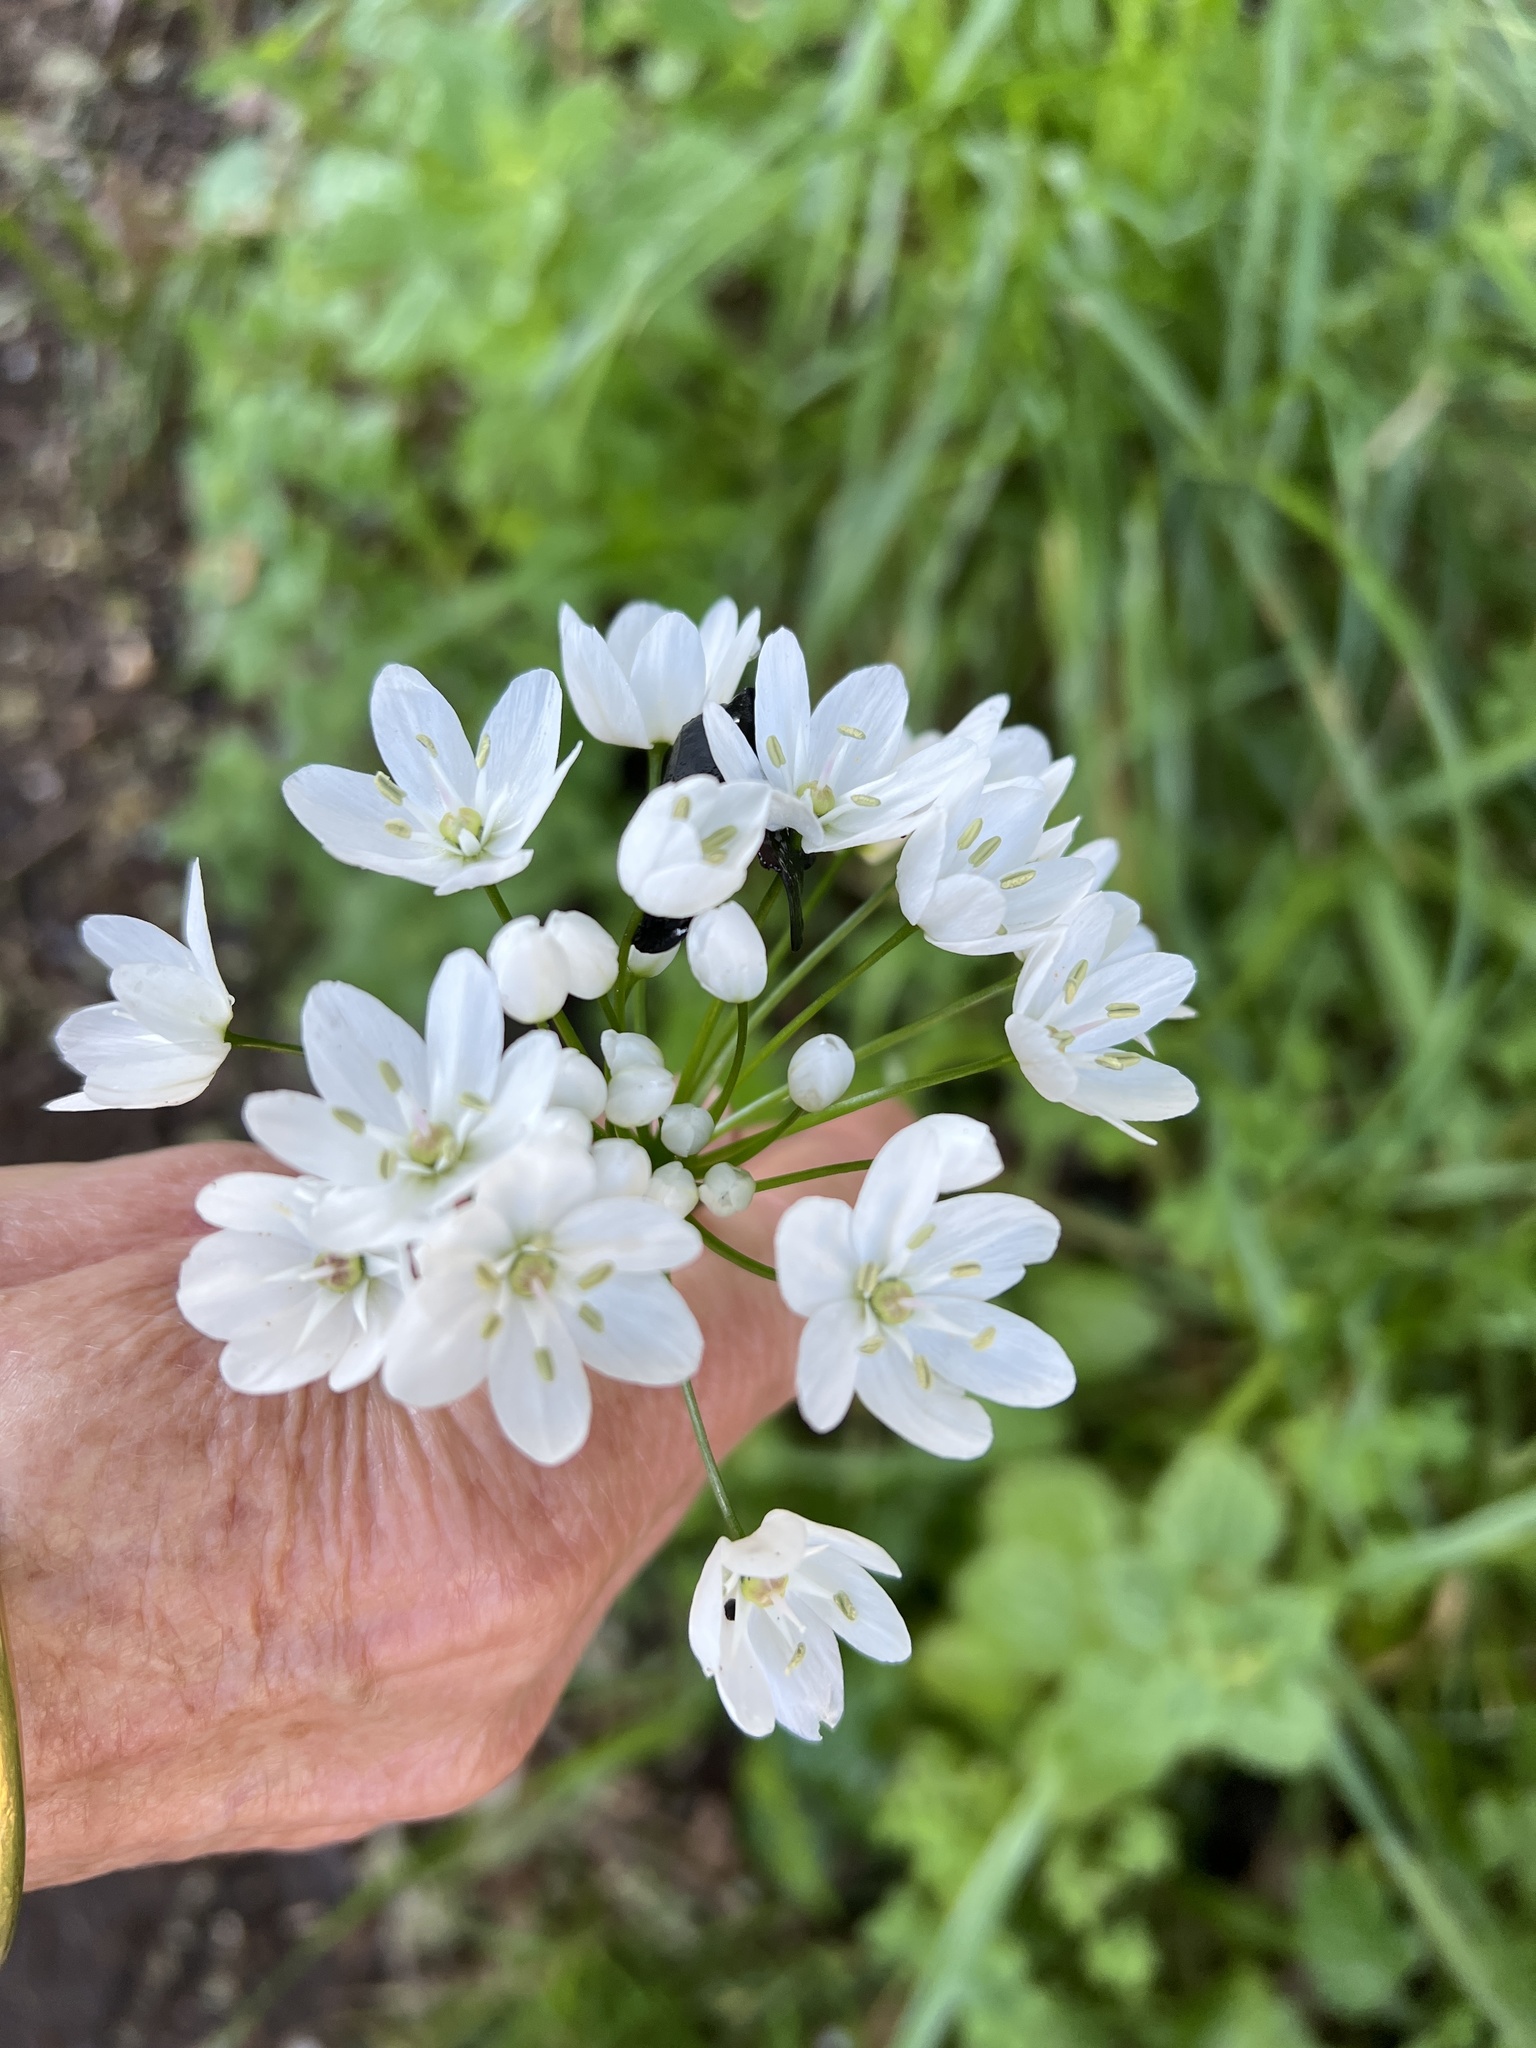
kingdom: Plantae
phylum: Tracheophyta
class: Liliopsida
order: Asparagales
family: Amaryllidaceae
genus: Allium
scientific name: Allium neapolitanum
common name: Neapolitan garlic
